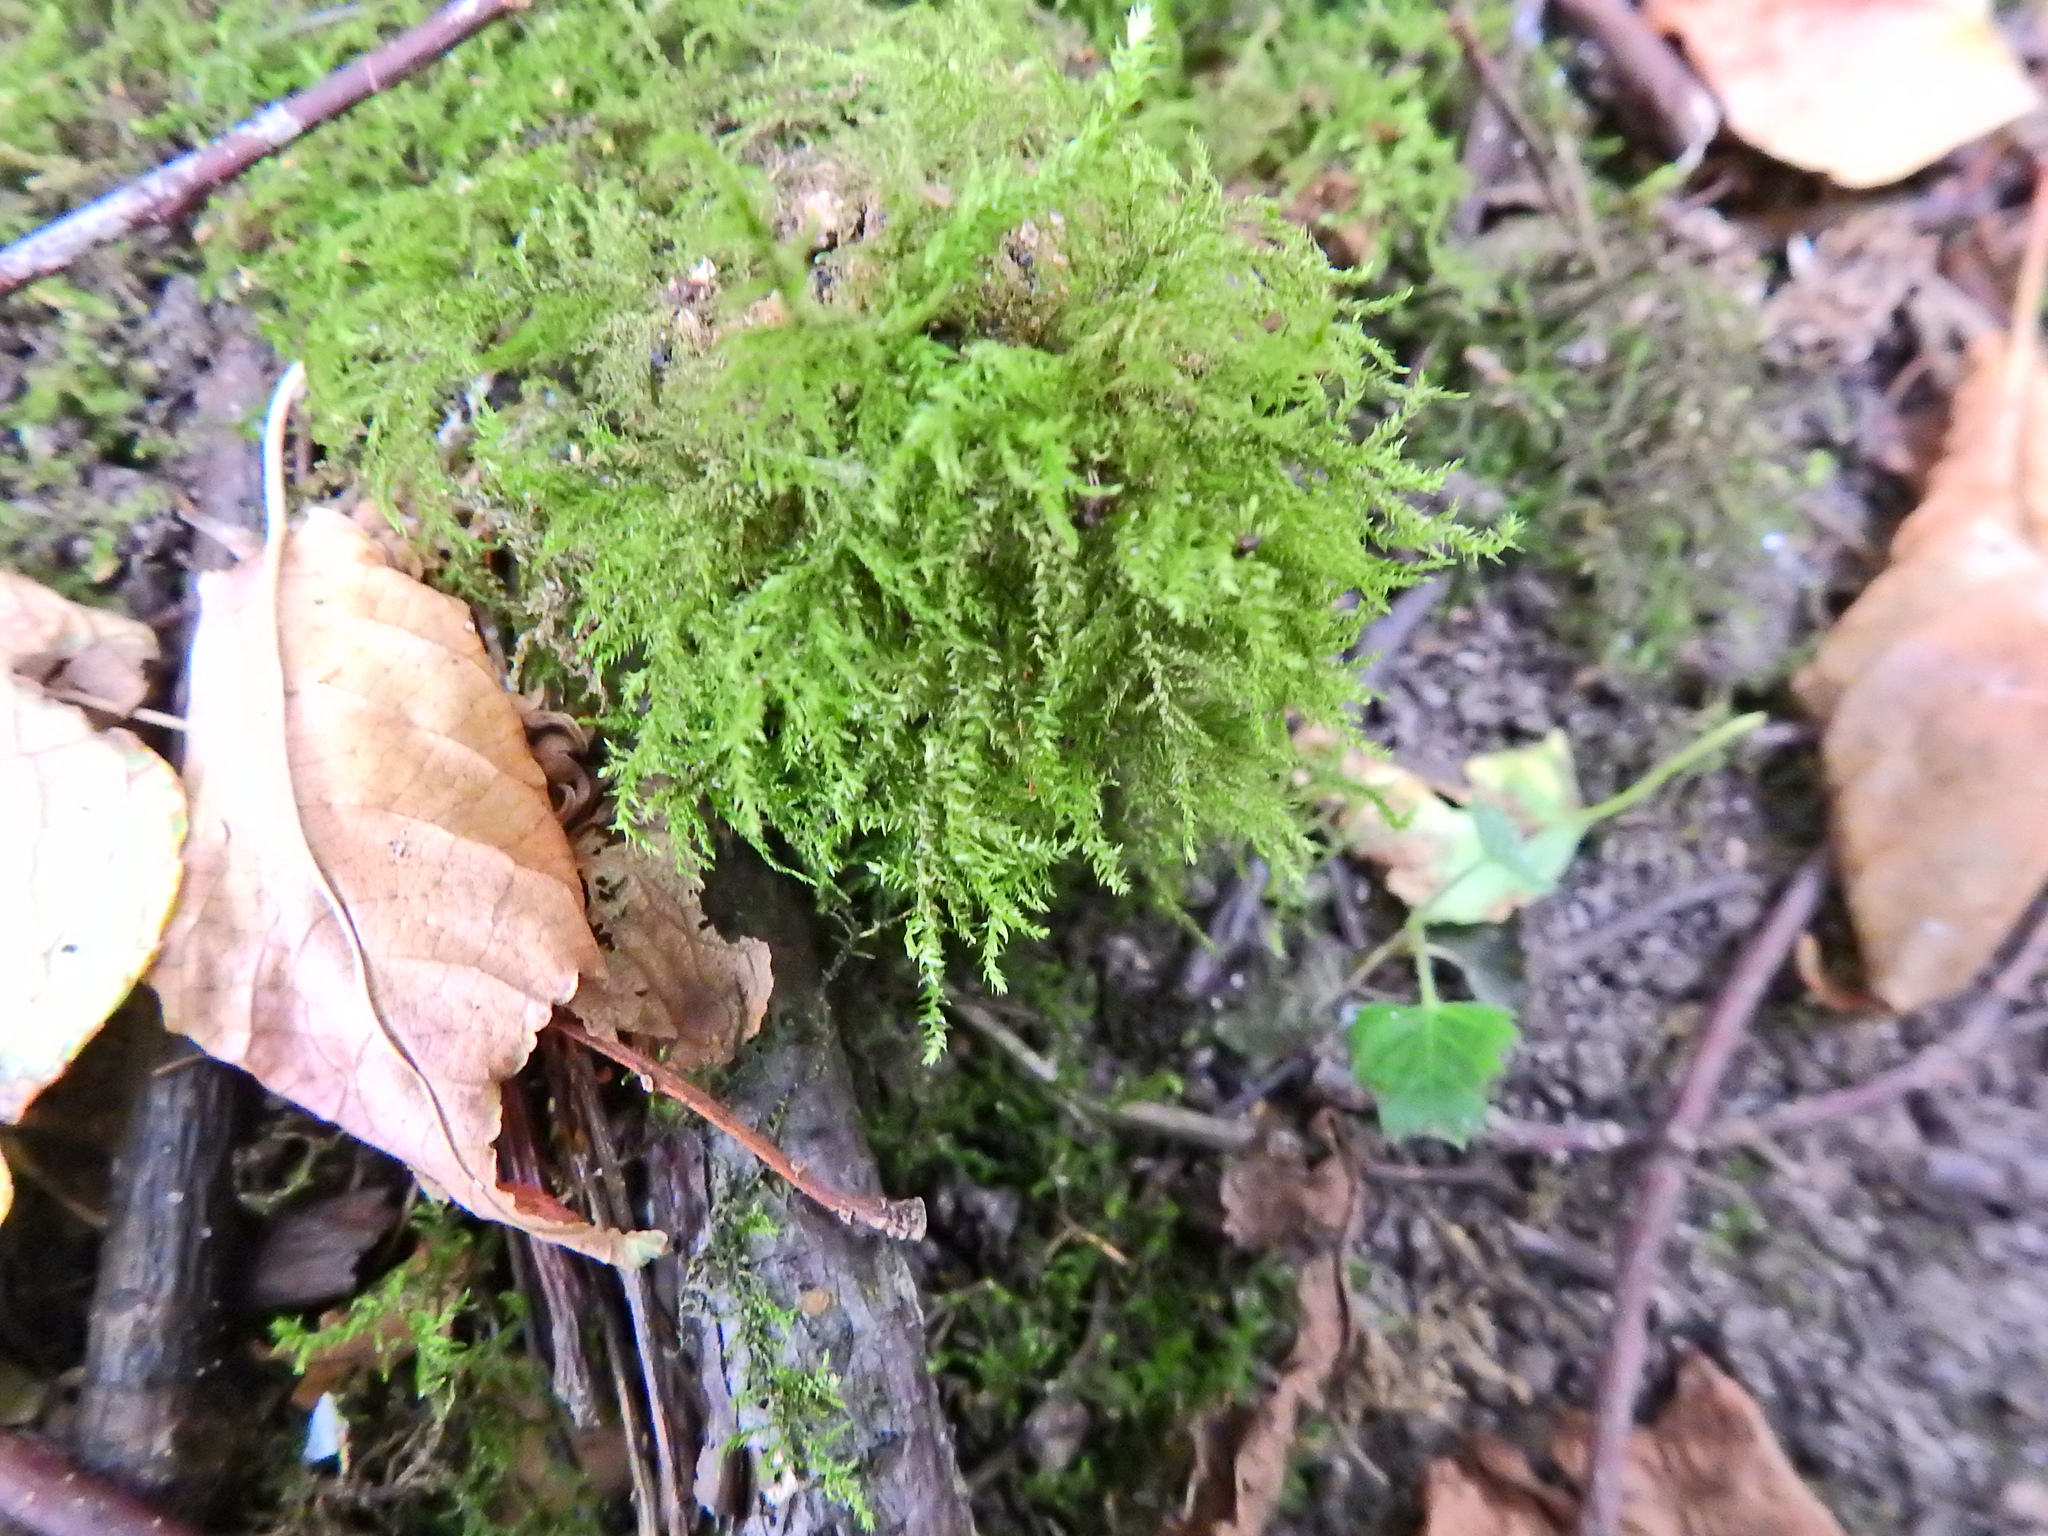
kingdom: Plantae
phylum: Bryophyta
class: Bryopsida
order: Hypnales
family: Brachytheciaceae
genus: Oxyrrhynchium
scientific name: Oxyrrhynchium hians
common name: Spreading beaked moss
